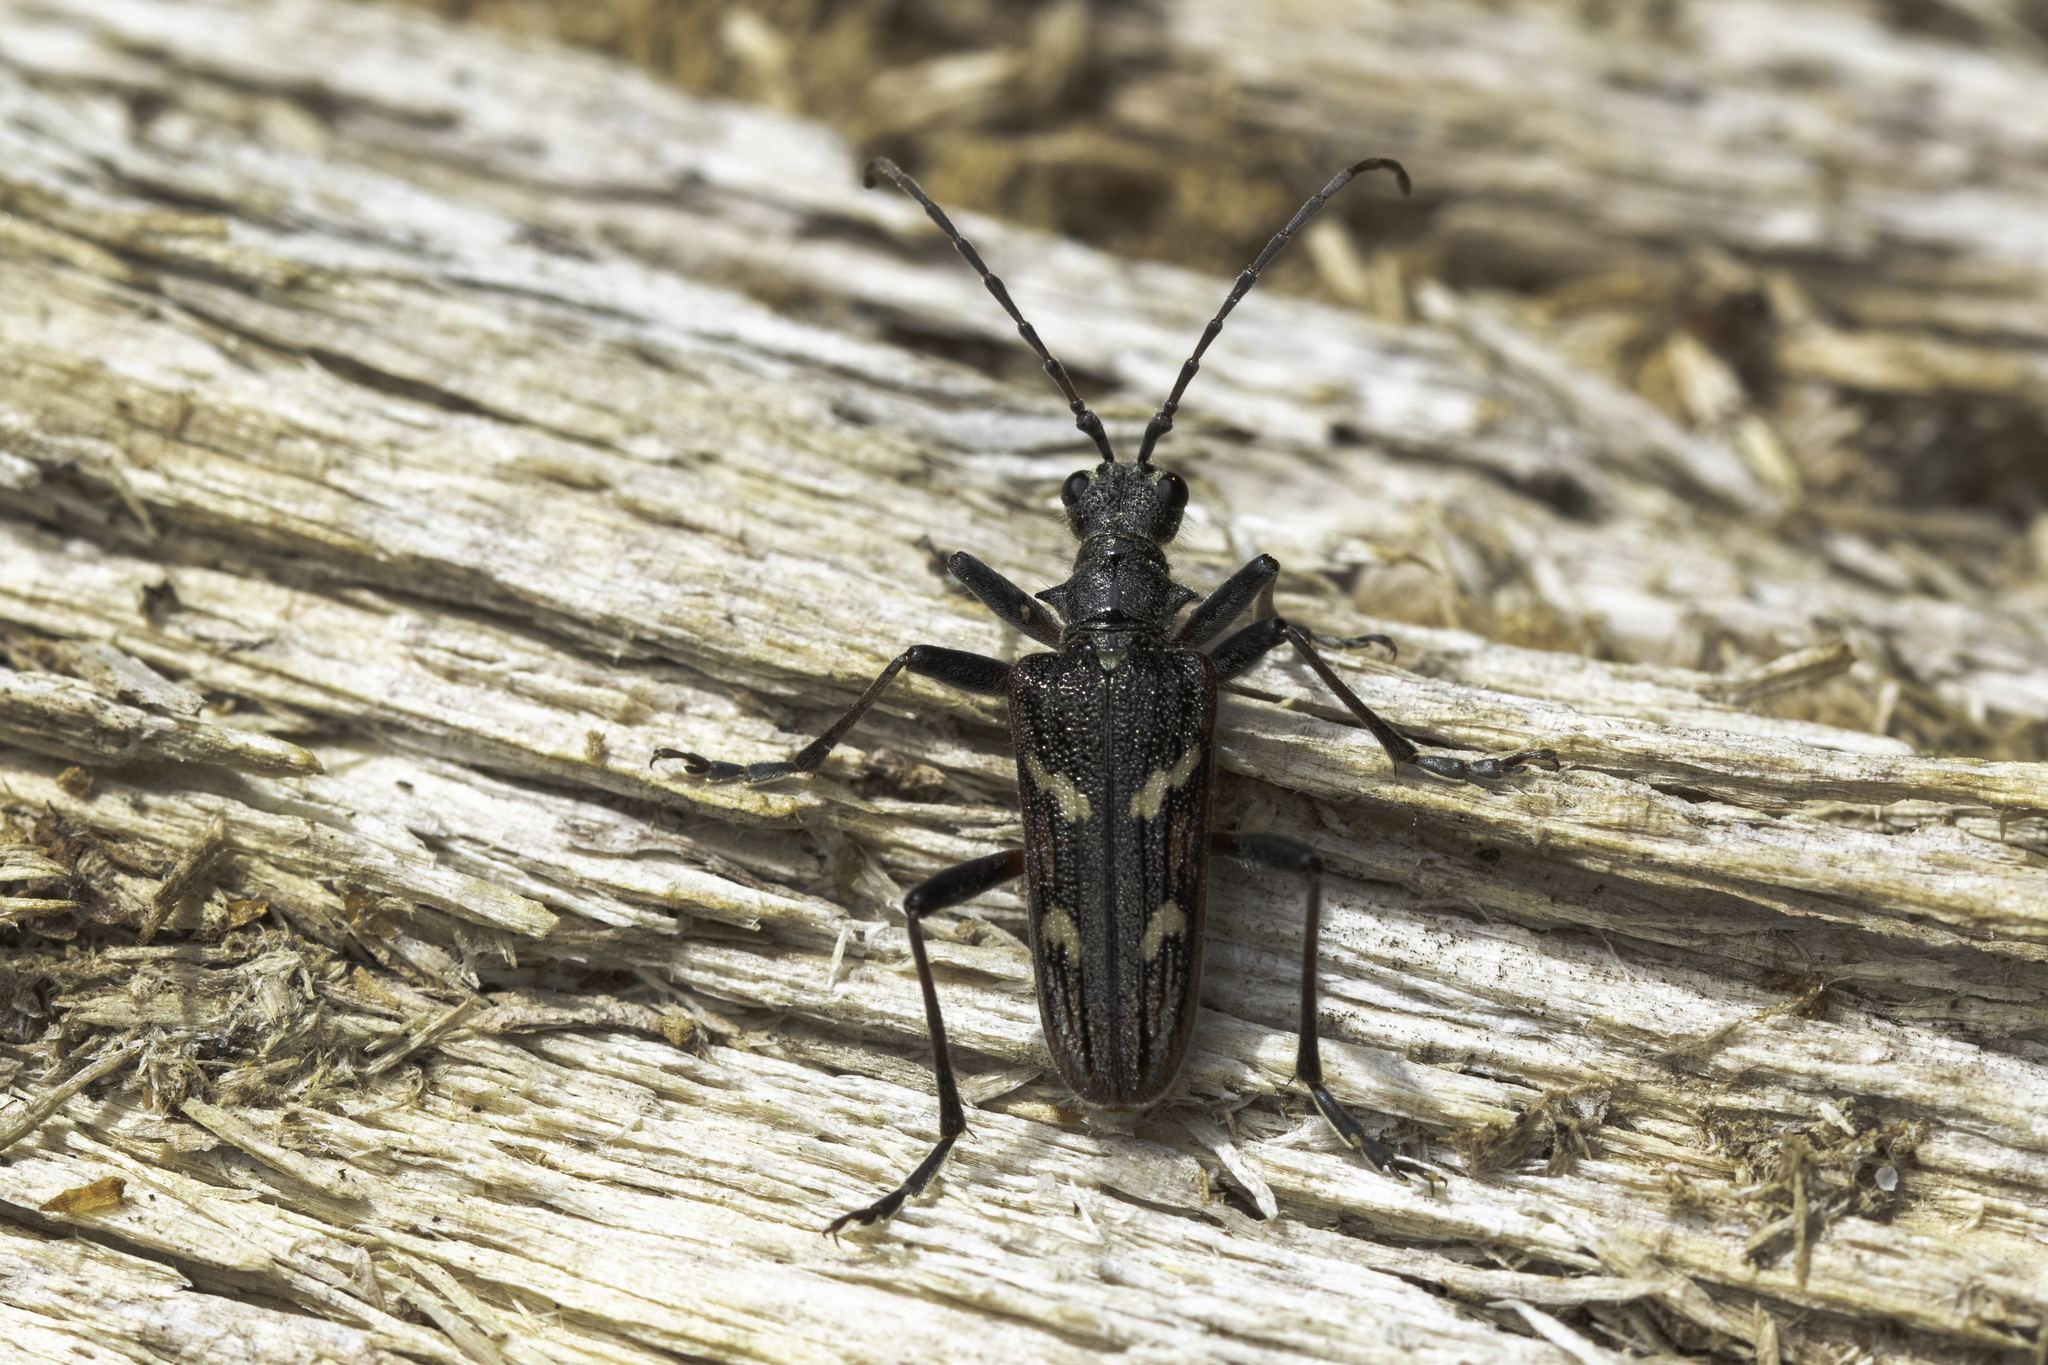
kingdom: Animalia
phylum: Arthropoda
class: Insecta
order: Coleoptera
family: Cerambycidae
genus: Rhagium
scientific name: Rhagium bifasciatum
